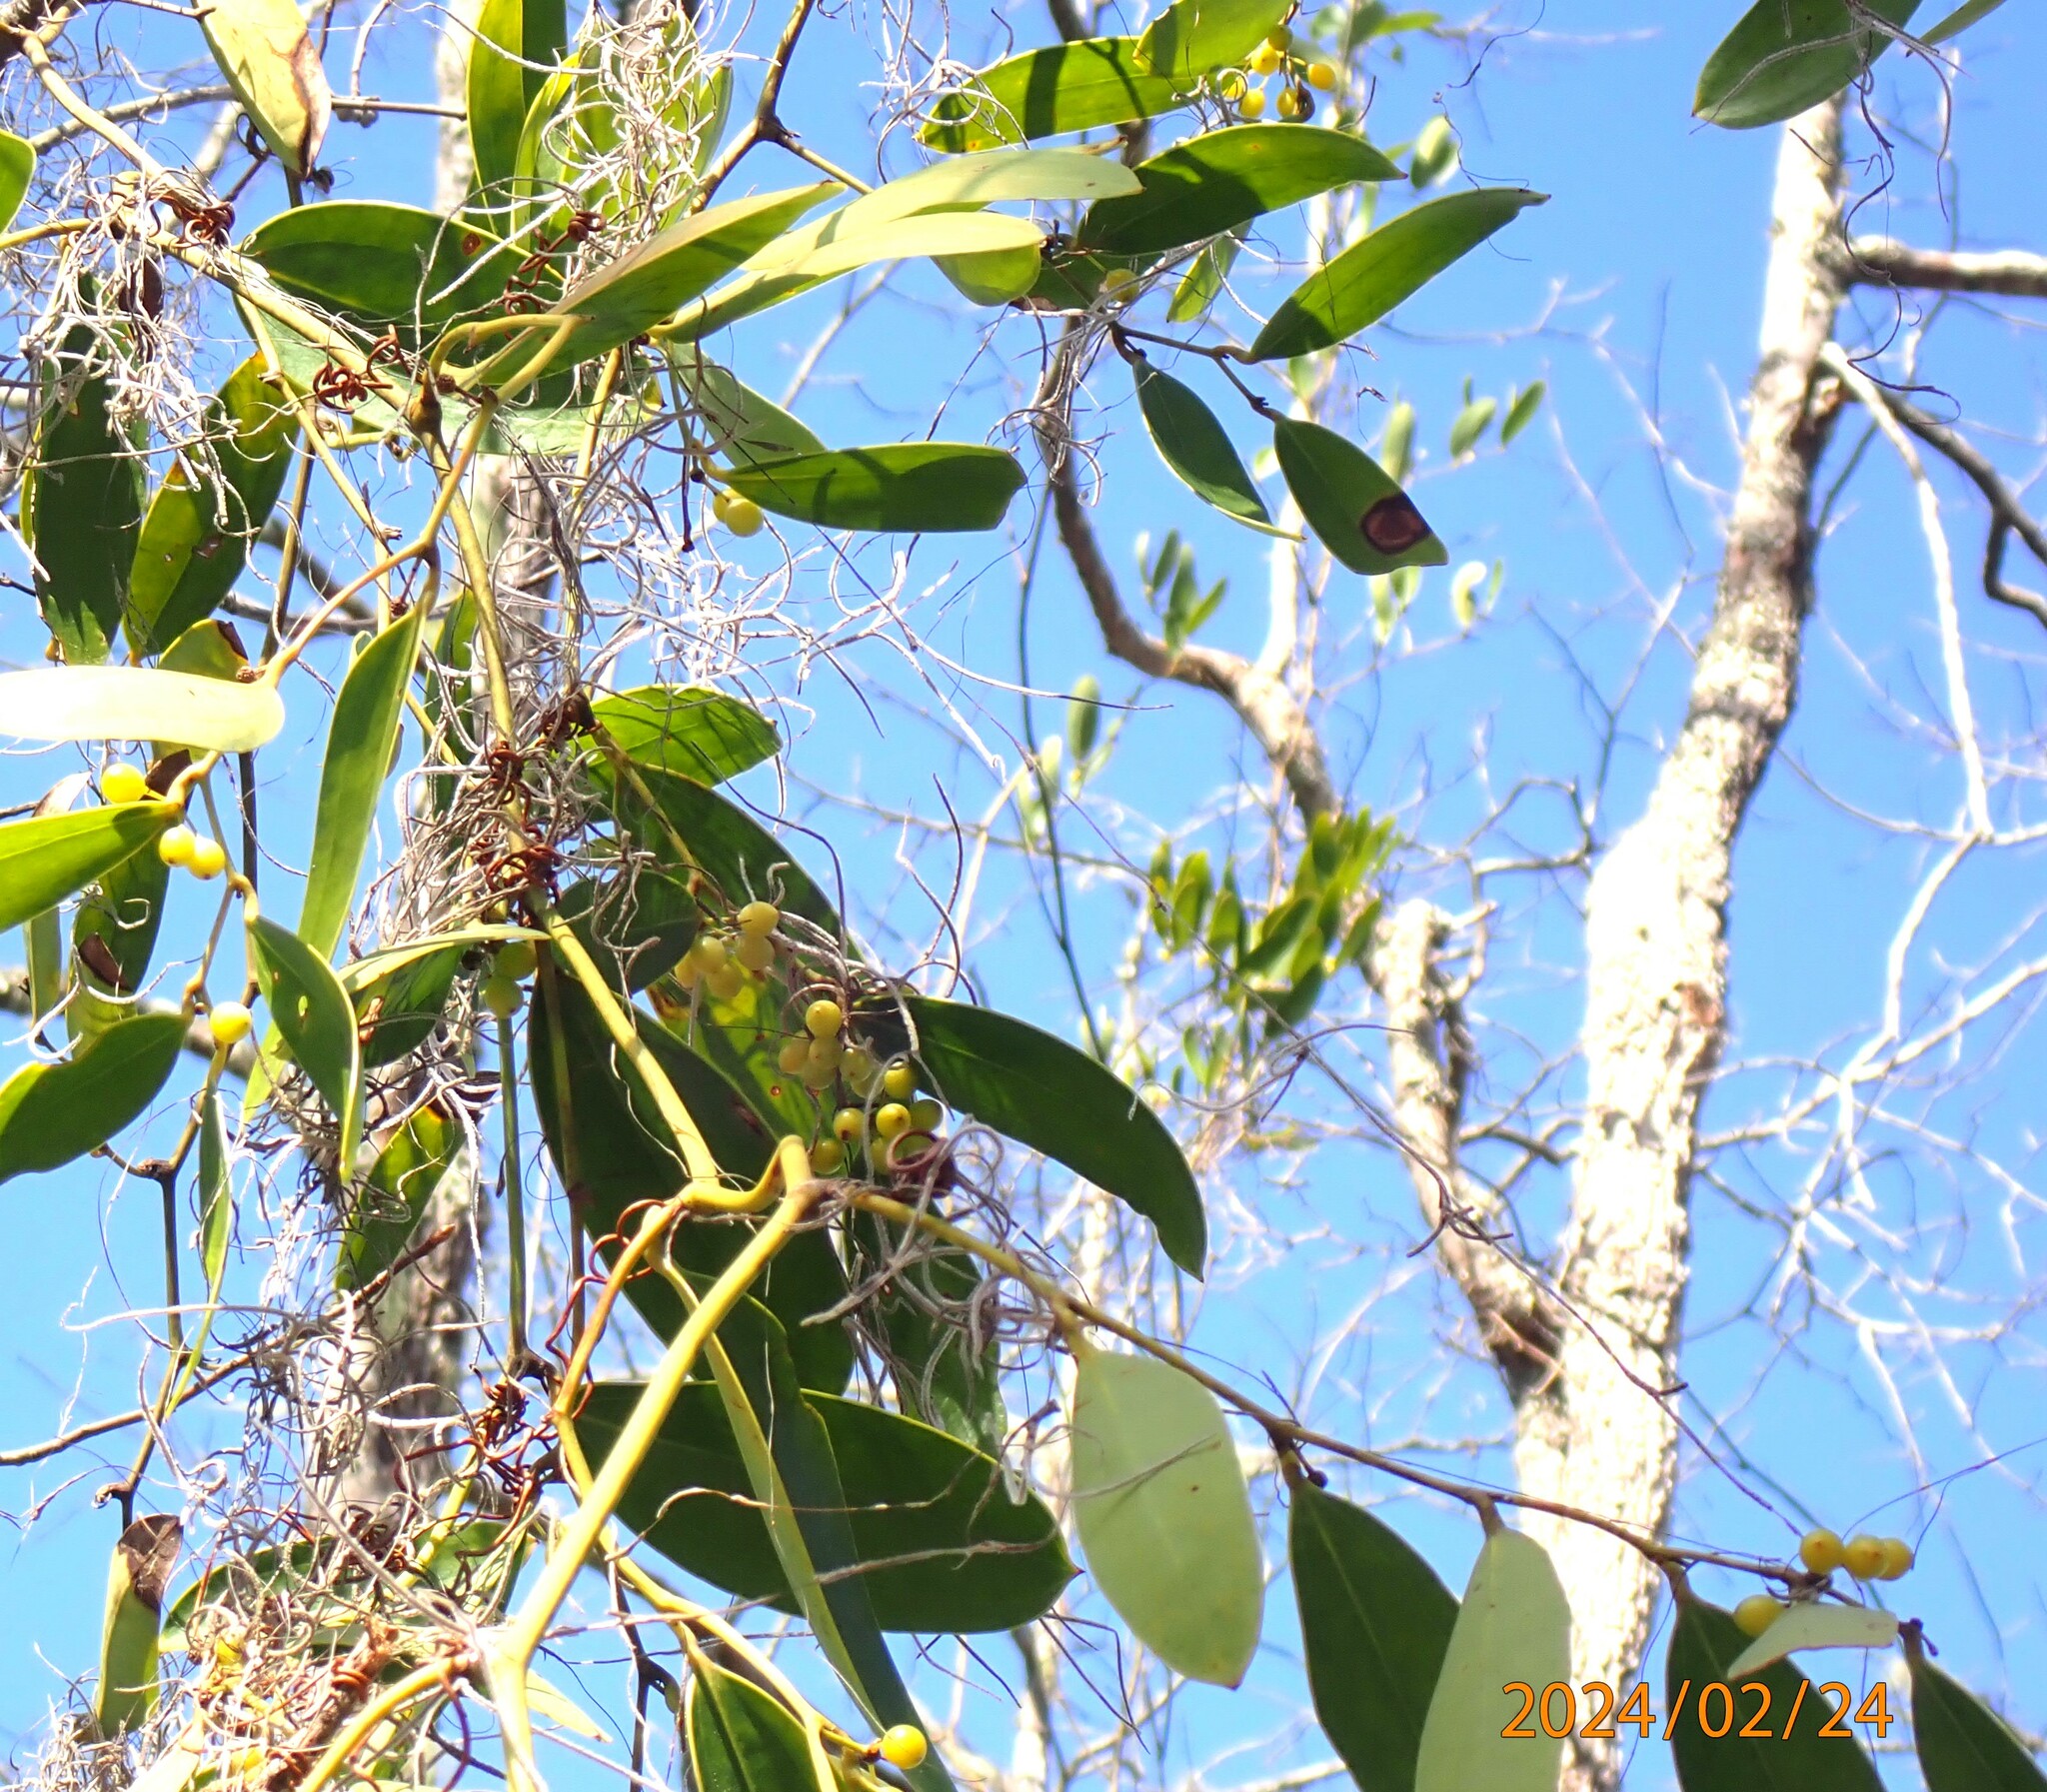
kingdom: Plantae
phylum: Tracheophyta
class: Liliopsida
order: Liliales
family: Smilacaceae
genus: Smilax
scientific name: Smilax laurifolia
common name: Bamboovine
